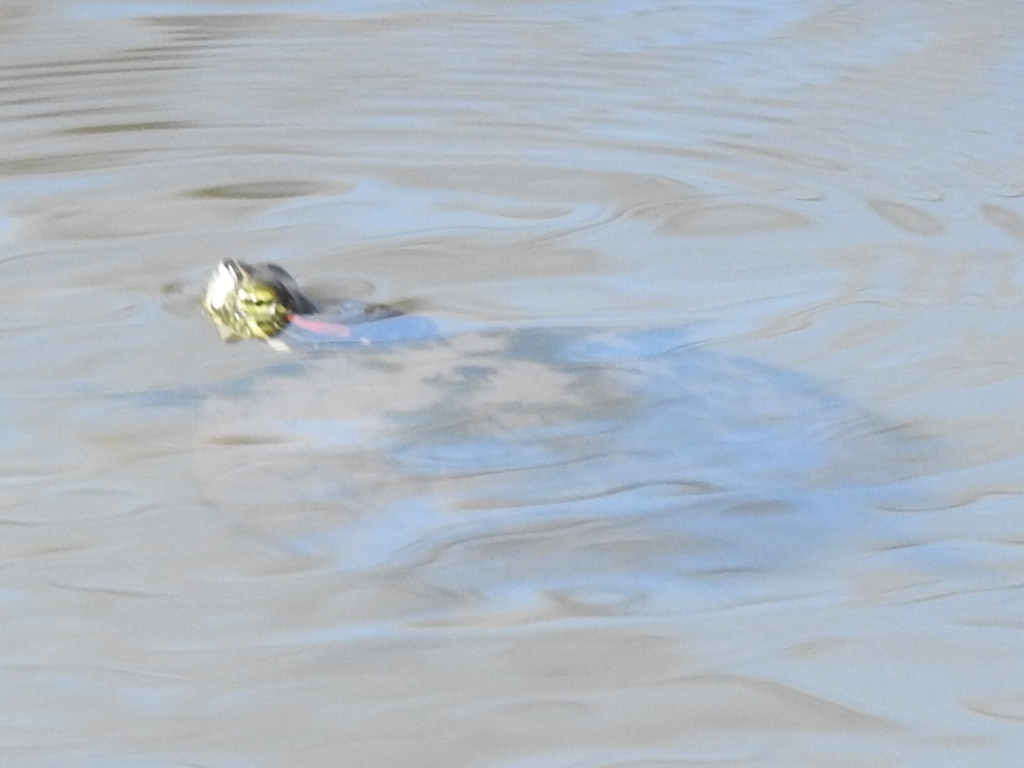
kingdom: Animalia
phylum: Chordata
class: Testudines
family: Emydidae
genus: Trachemys
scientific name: Trachemys scripta
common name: Slider
